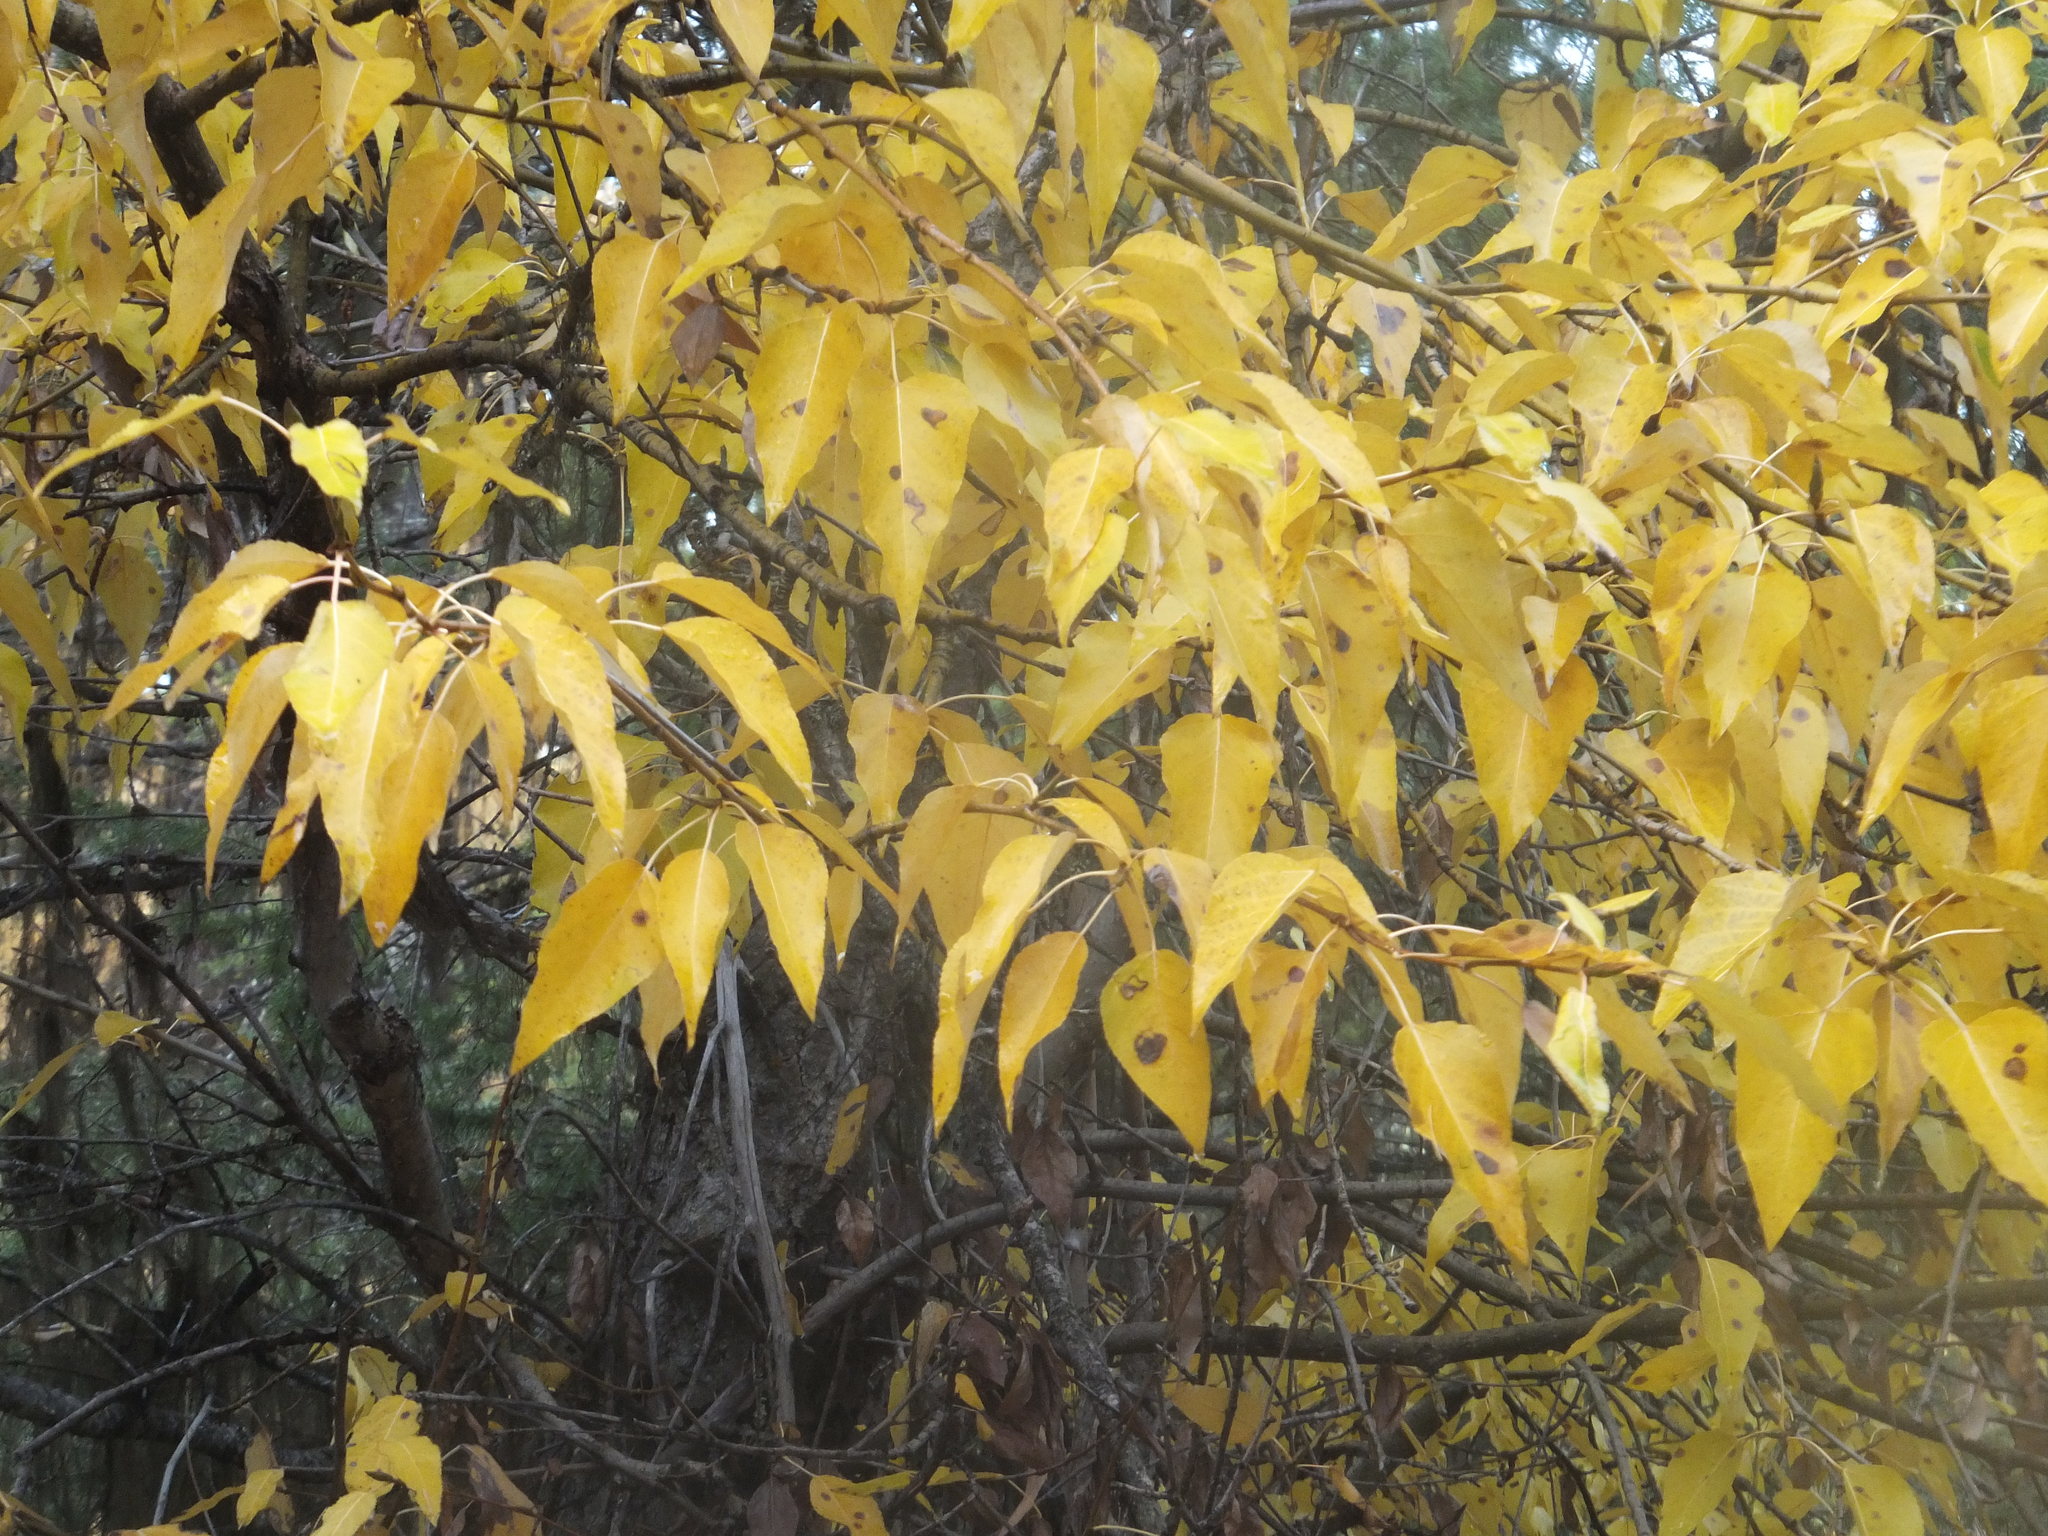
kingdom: Plantae
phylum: Tracheophyta
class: Magnoliopsida
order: Malpighiales
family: Salicaceae
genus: Populus
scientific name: Populus trichocarpa
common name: Black cottonwood
